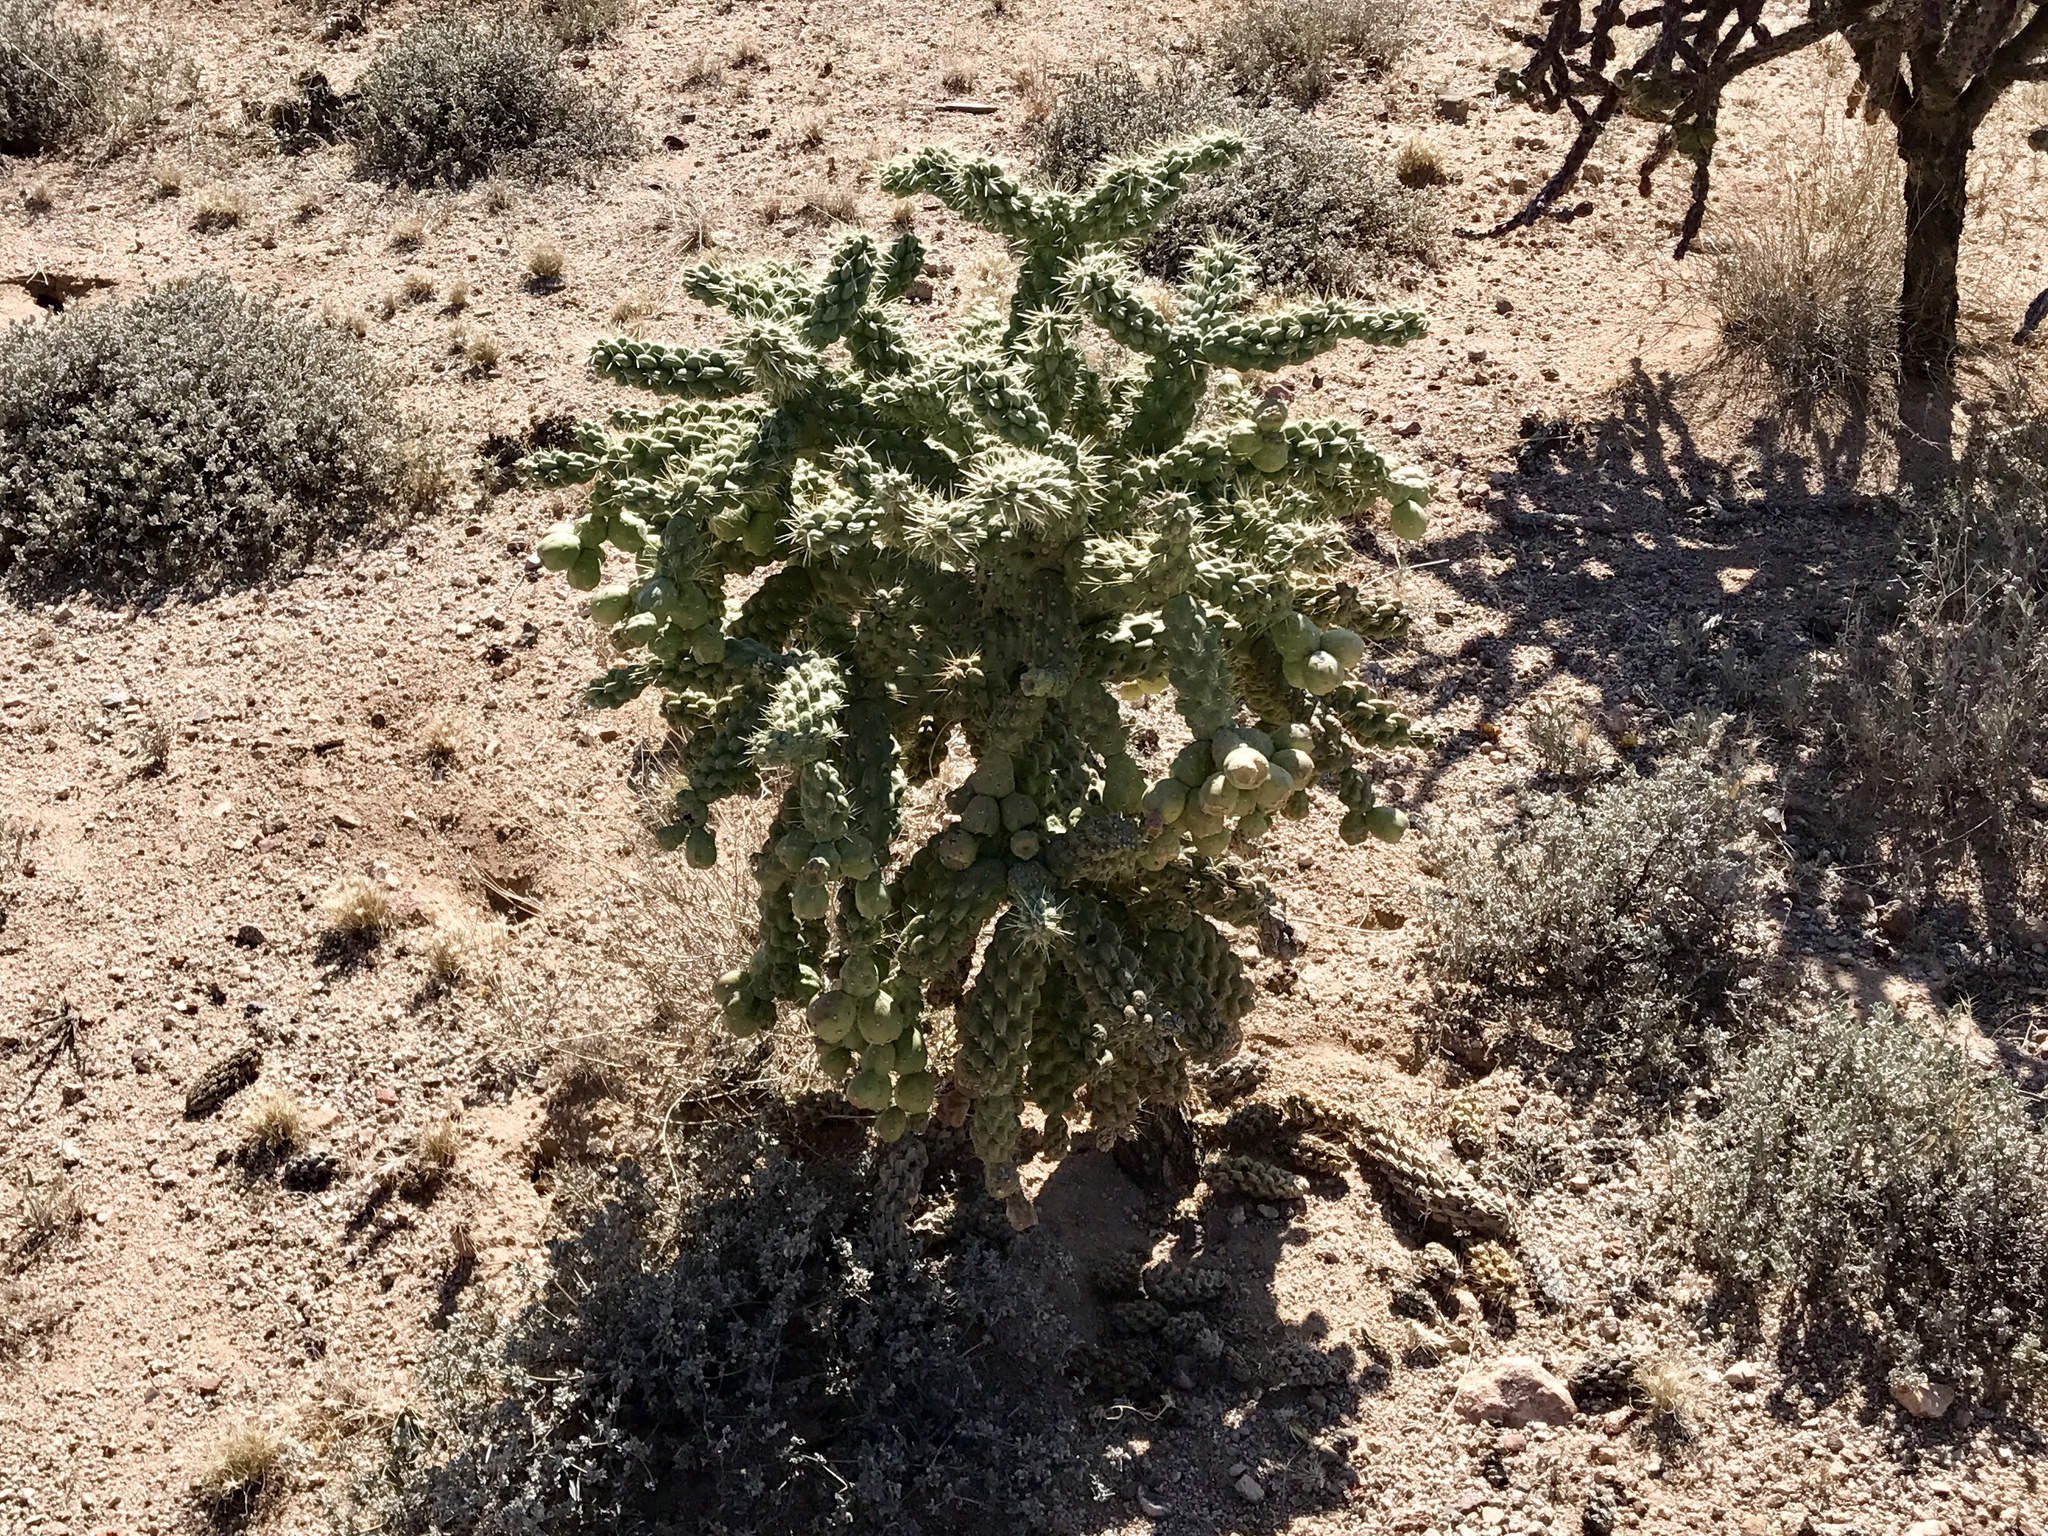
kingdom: Plantae
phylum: Tracheophyta
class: Magnoliopsida
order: Caryophyllales
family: Cactaceae
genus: Cylindropuntia
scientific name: Cylindropuntia fulgida
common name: Jumping cholla
